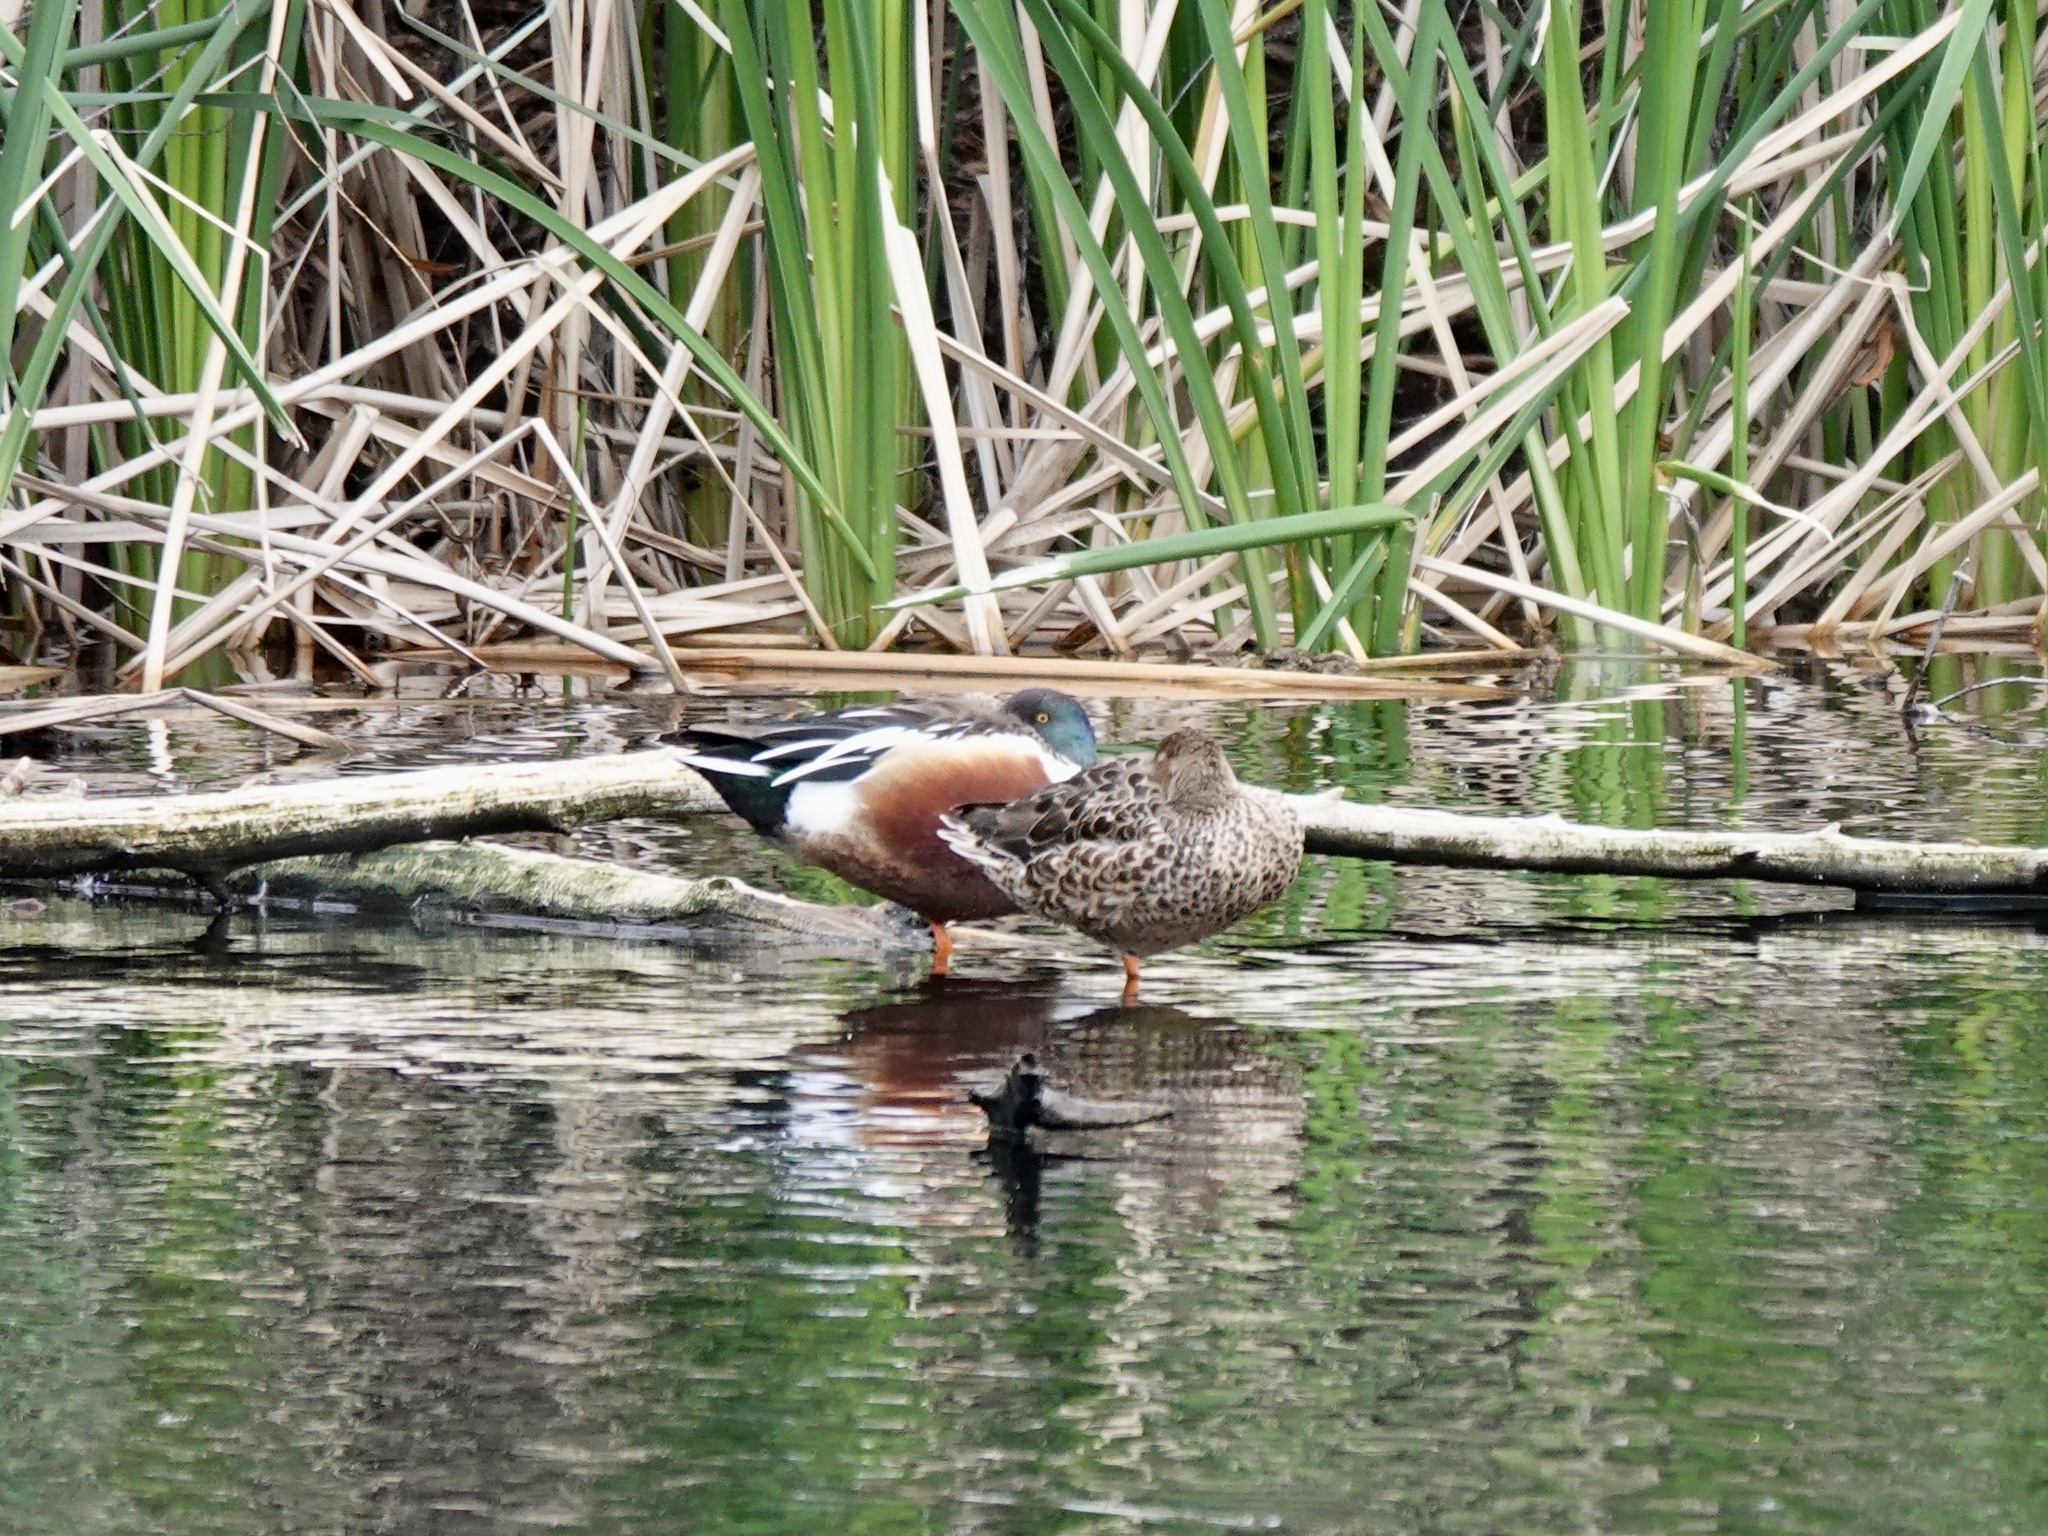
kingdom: Animalia
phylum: Chordata
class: Aves
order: Anseriformes
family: Anatidae
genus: Spatula
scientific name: Spatula clypeata
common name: Northern shoveler
